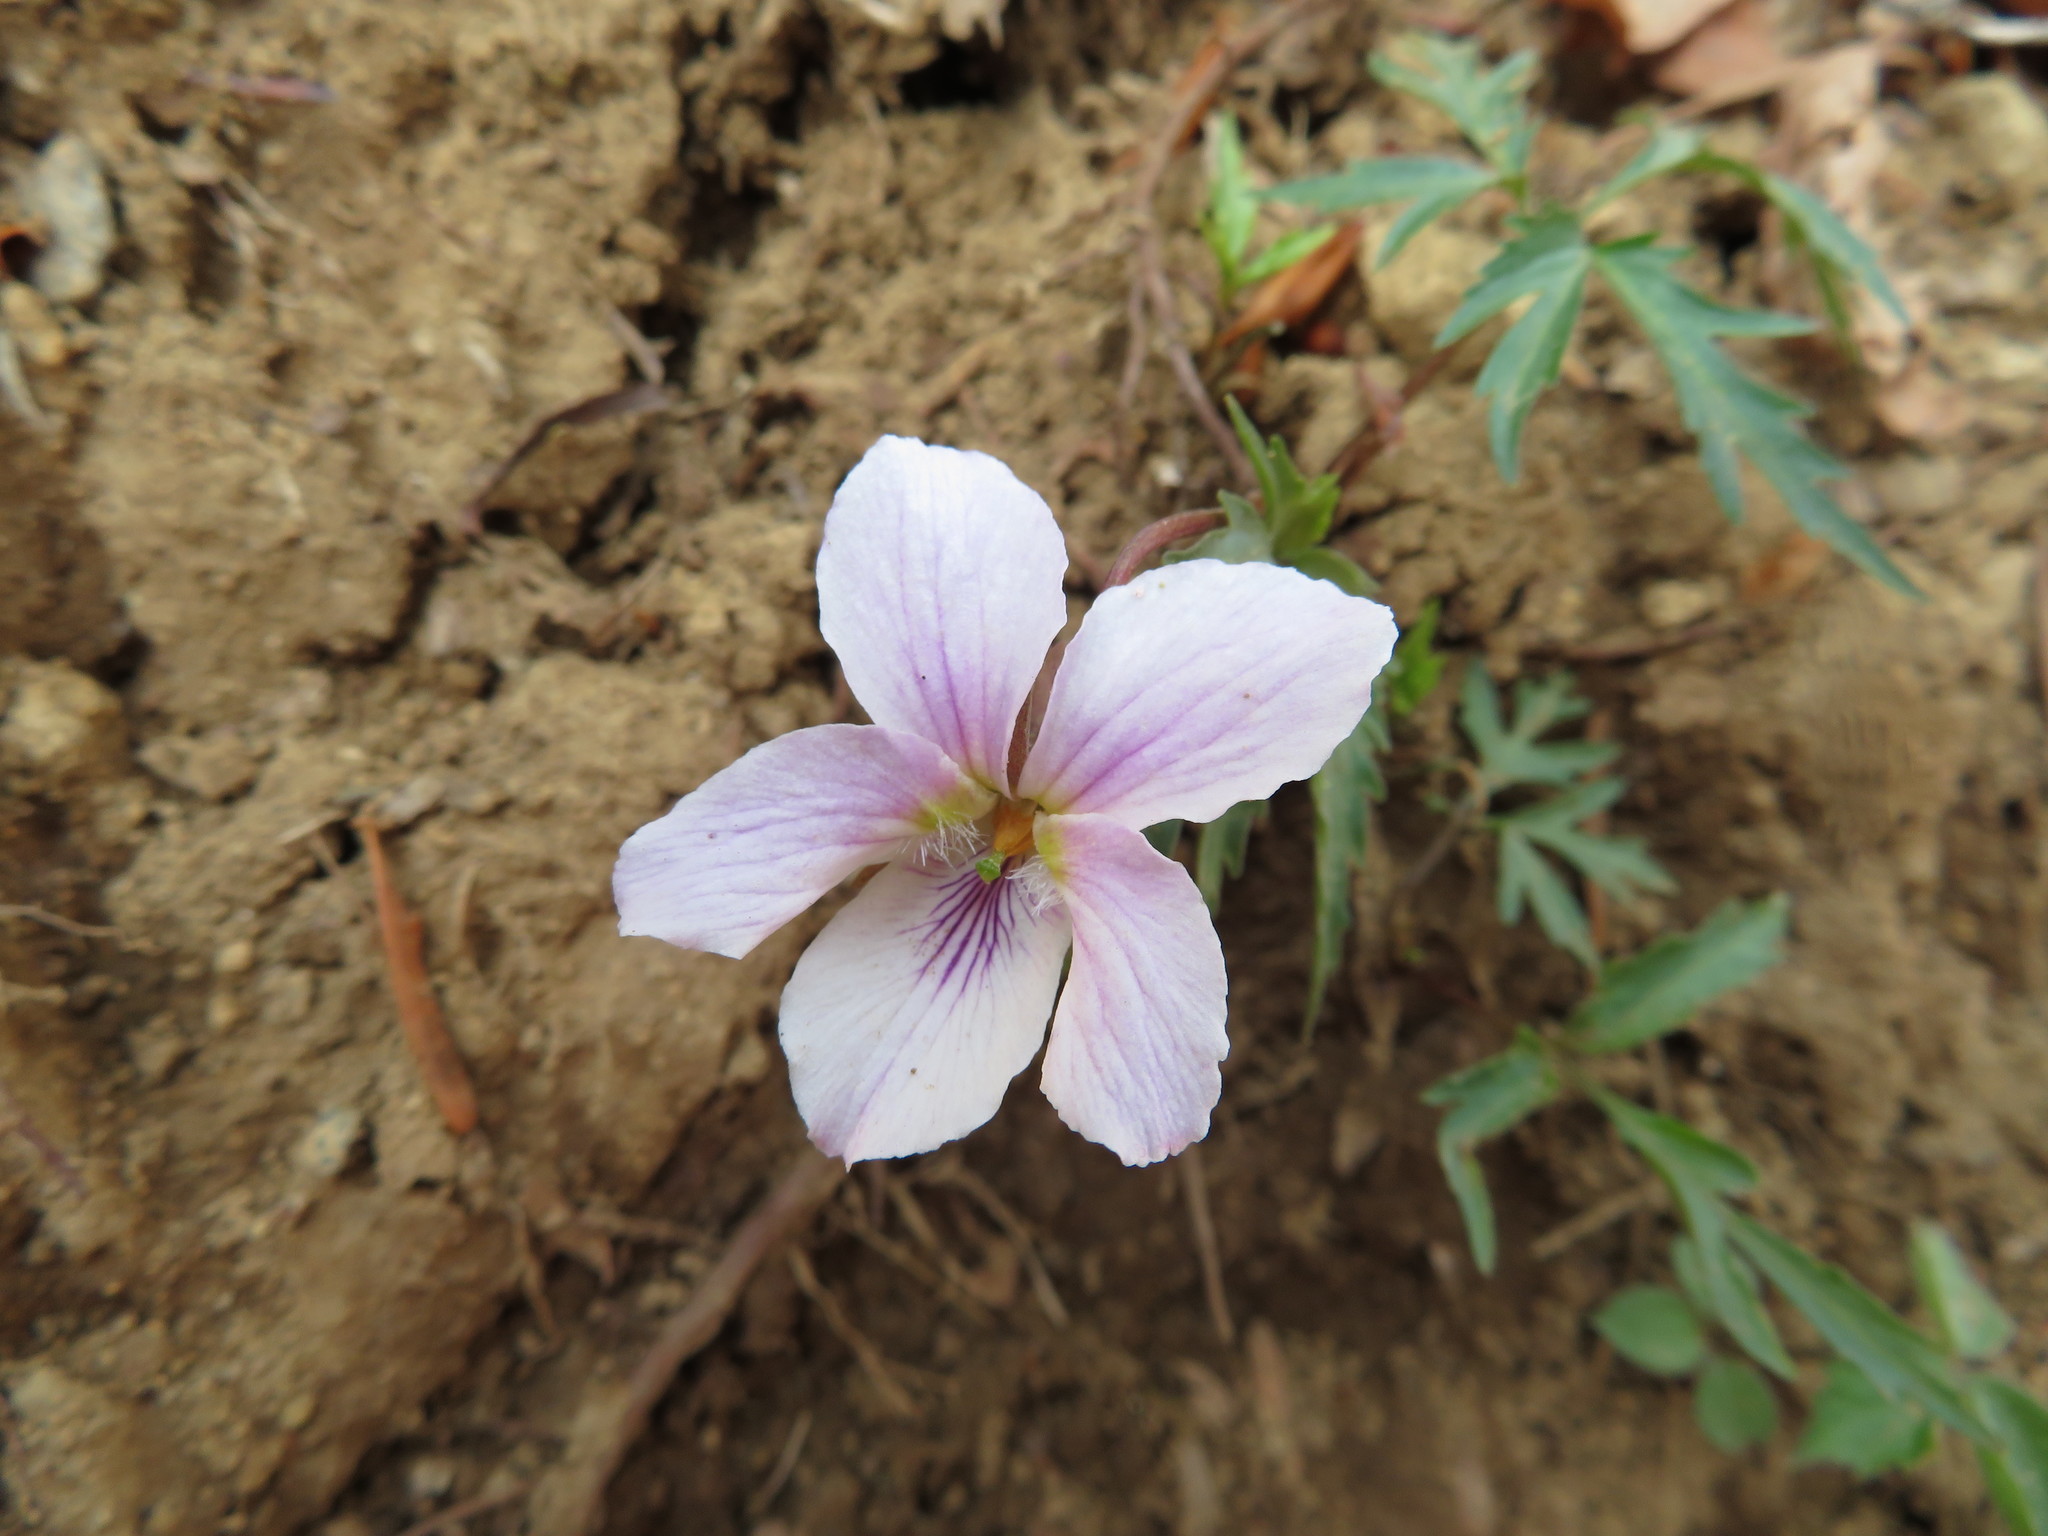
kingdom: Plantae
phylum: Tracheophyta
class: Magnoliopsida
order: Malpighiales
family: Violaceae
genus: Viola
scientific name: Viola albida
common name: Korean violet
